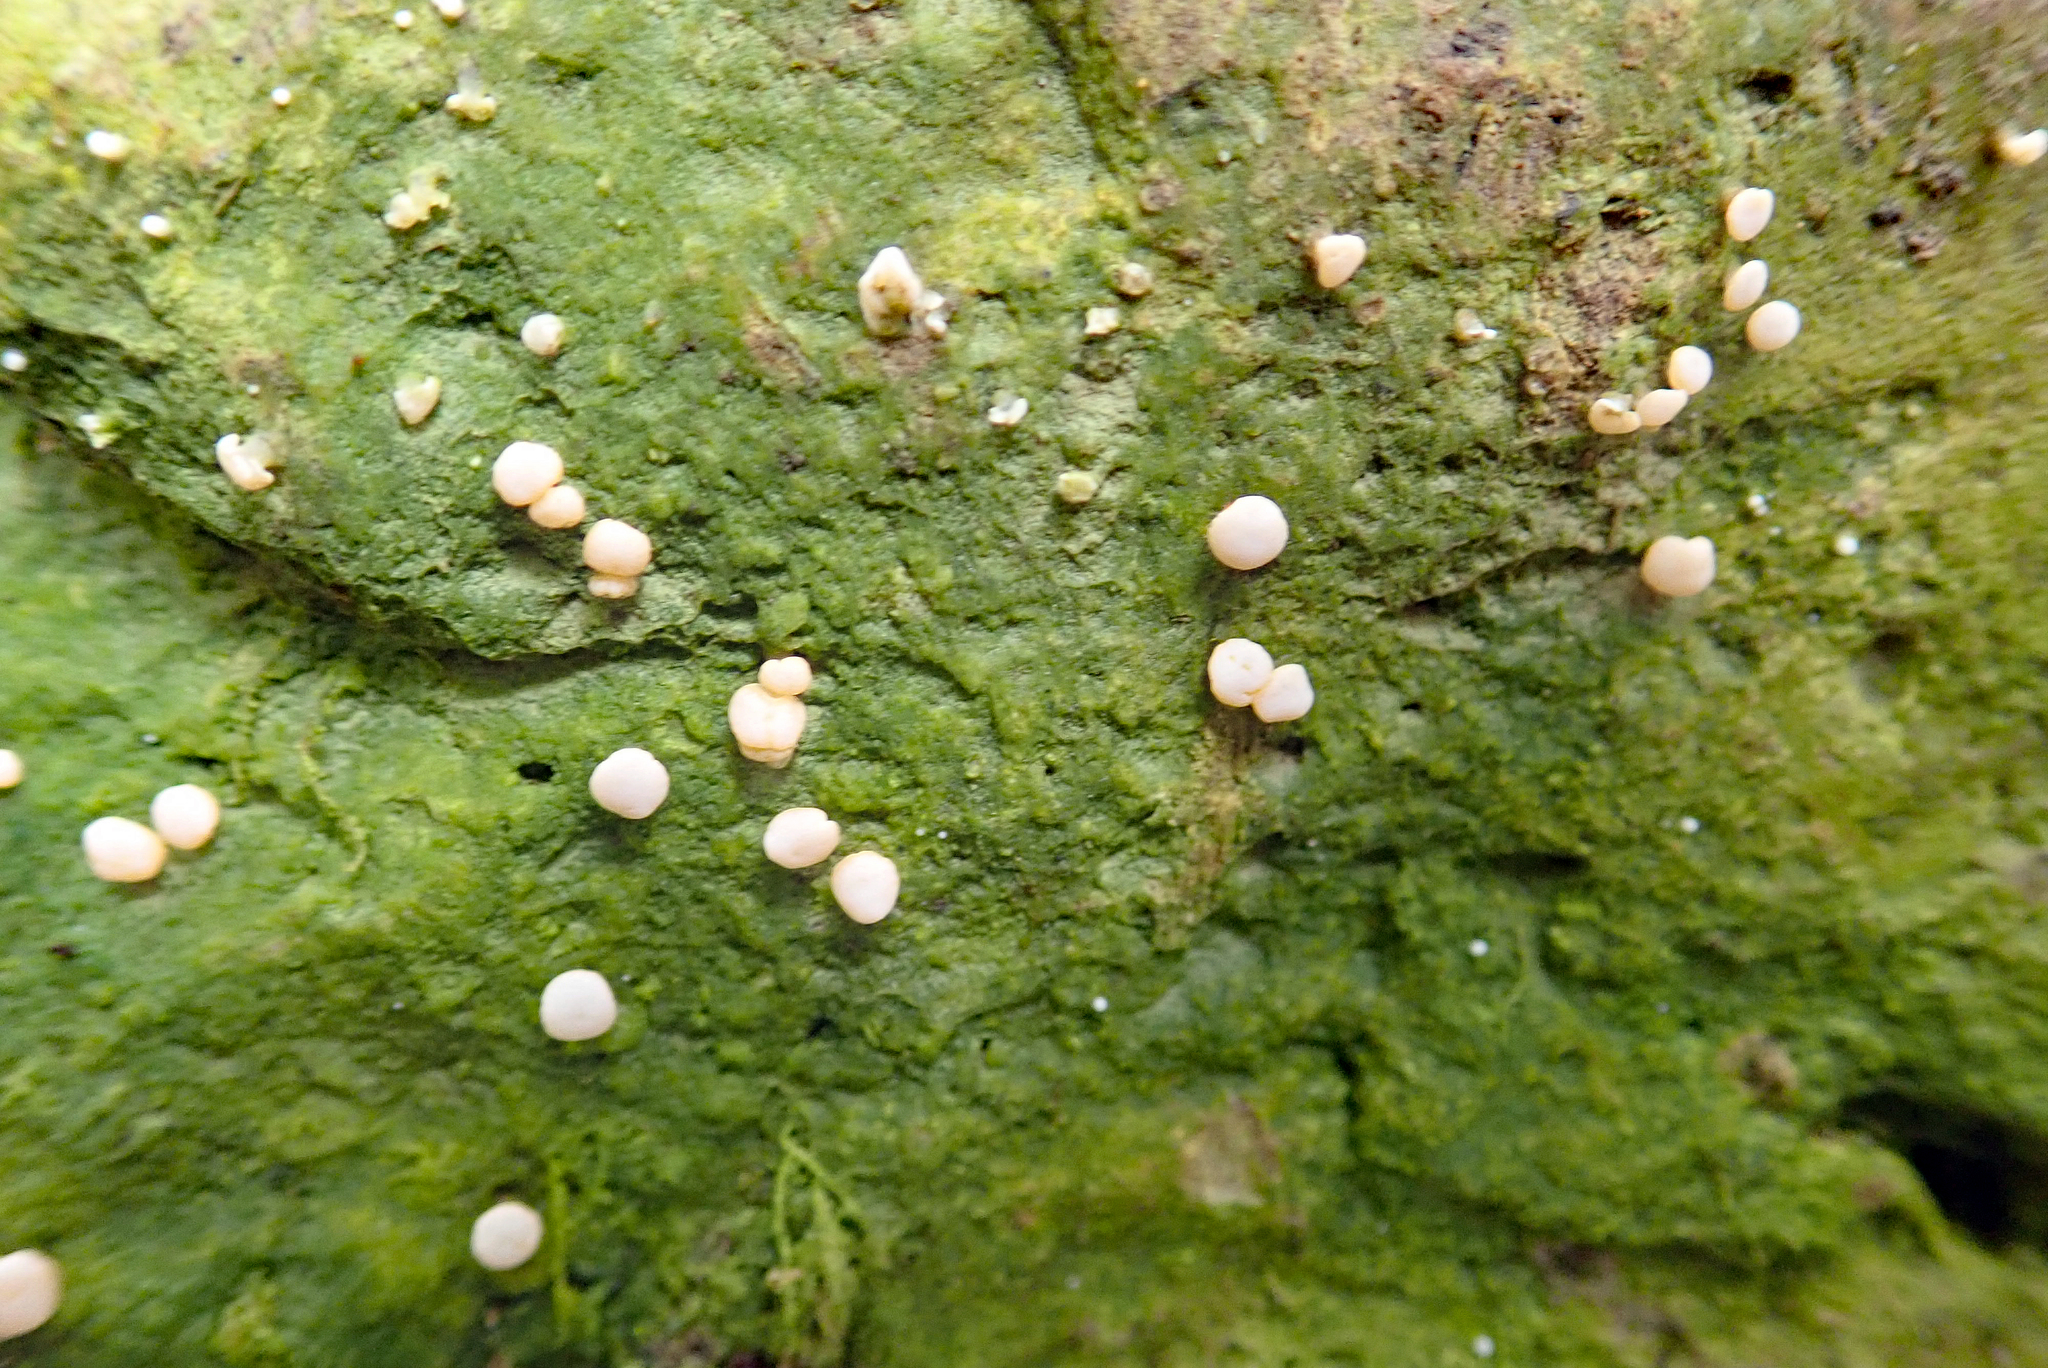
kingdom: Fungi
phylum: Ascomycota
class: Lecanoromycetes
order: Pertusariales
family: Icmadophilaceae
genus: Dibaeis
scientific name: Dibaeis absoluta
